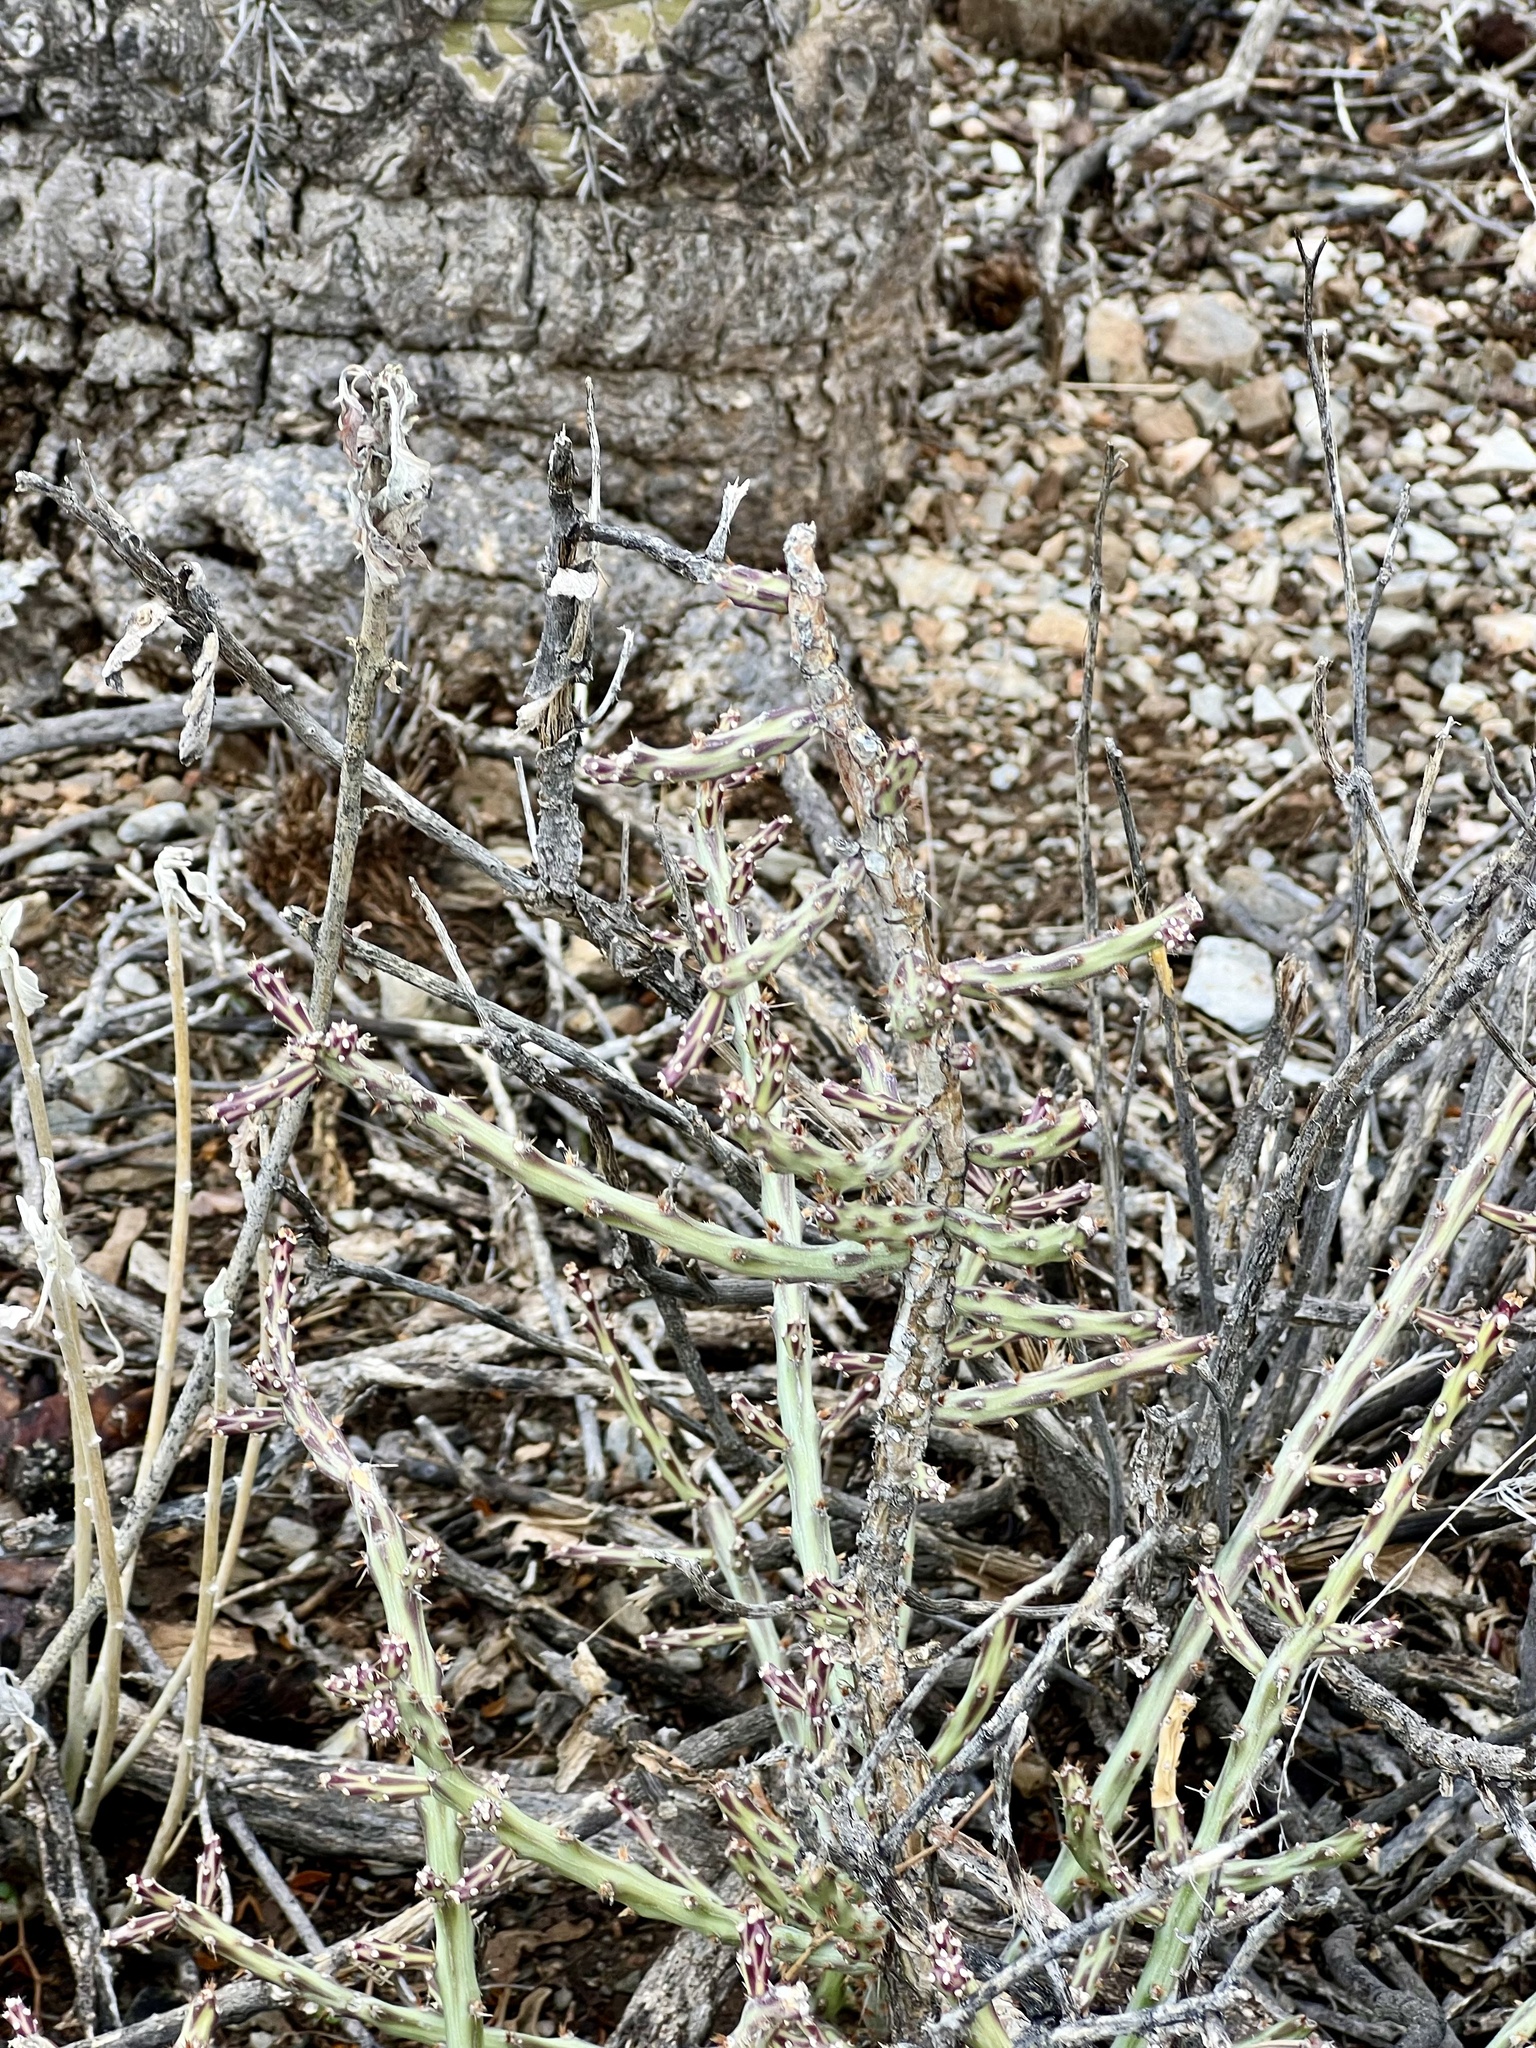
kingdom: Plantae
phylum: Tracheophyta
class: Magnoliopsida
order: Caryophyllales
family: Cactaceae
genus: Cylindropuntia
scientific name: Cylindropuntia leptocaulis
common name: Christmas cactus
